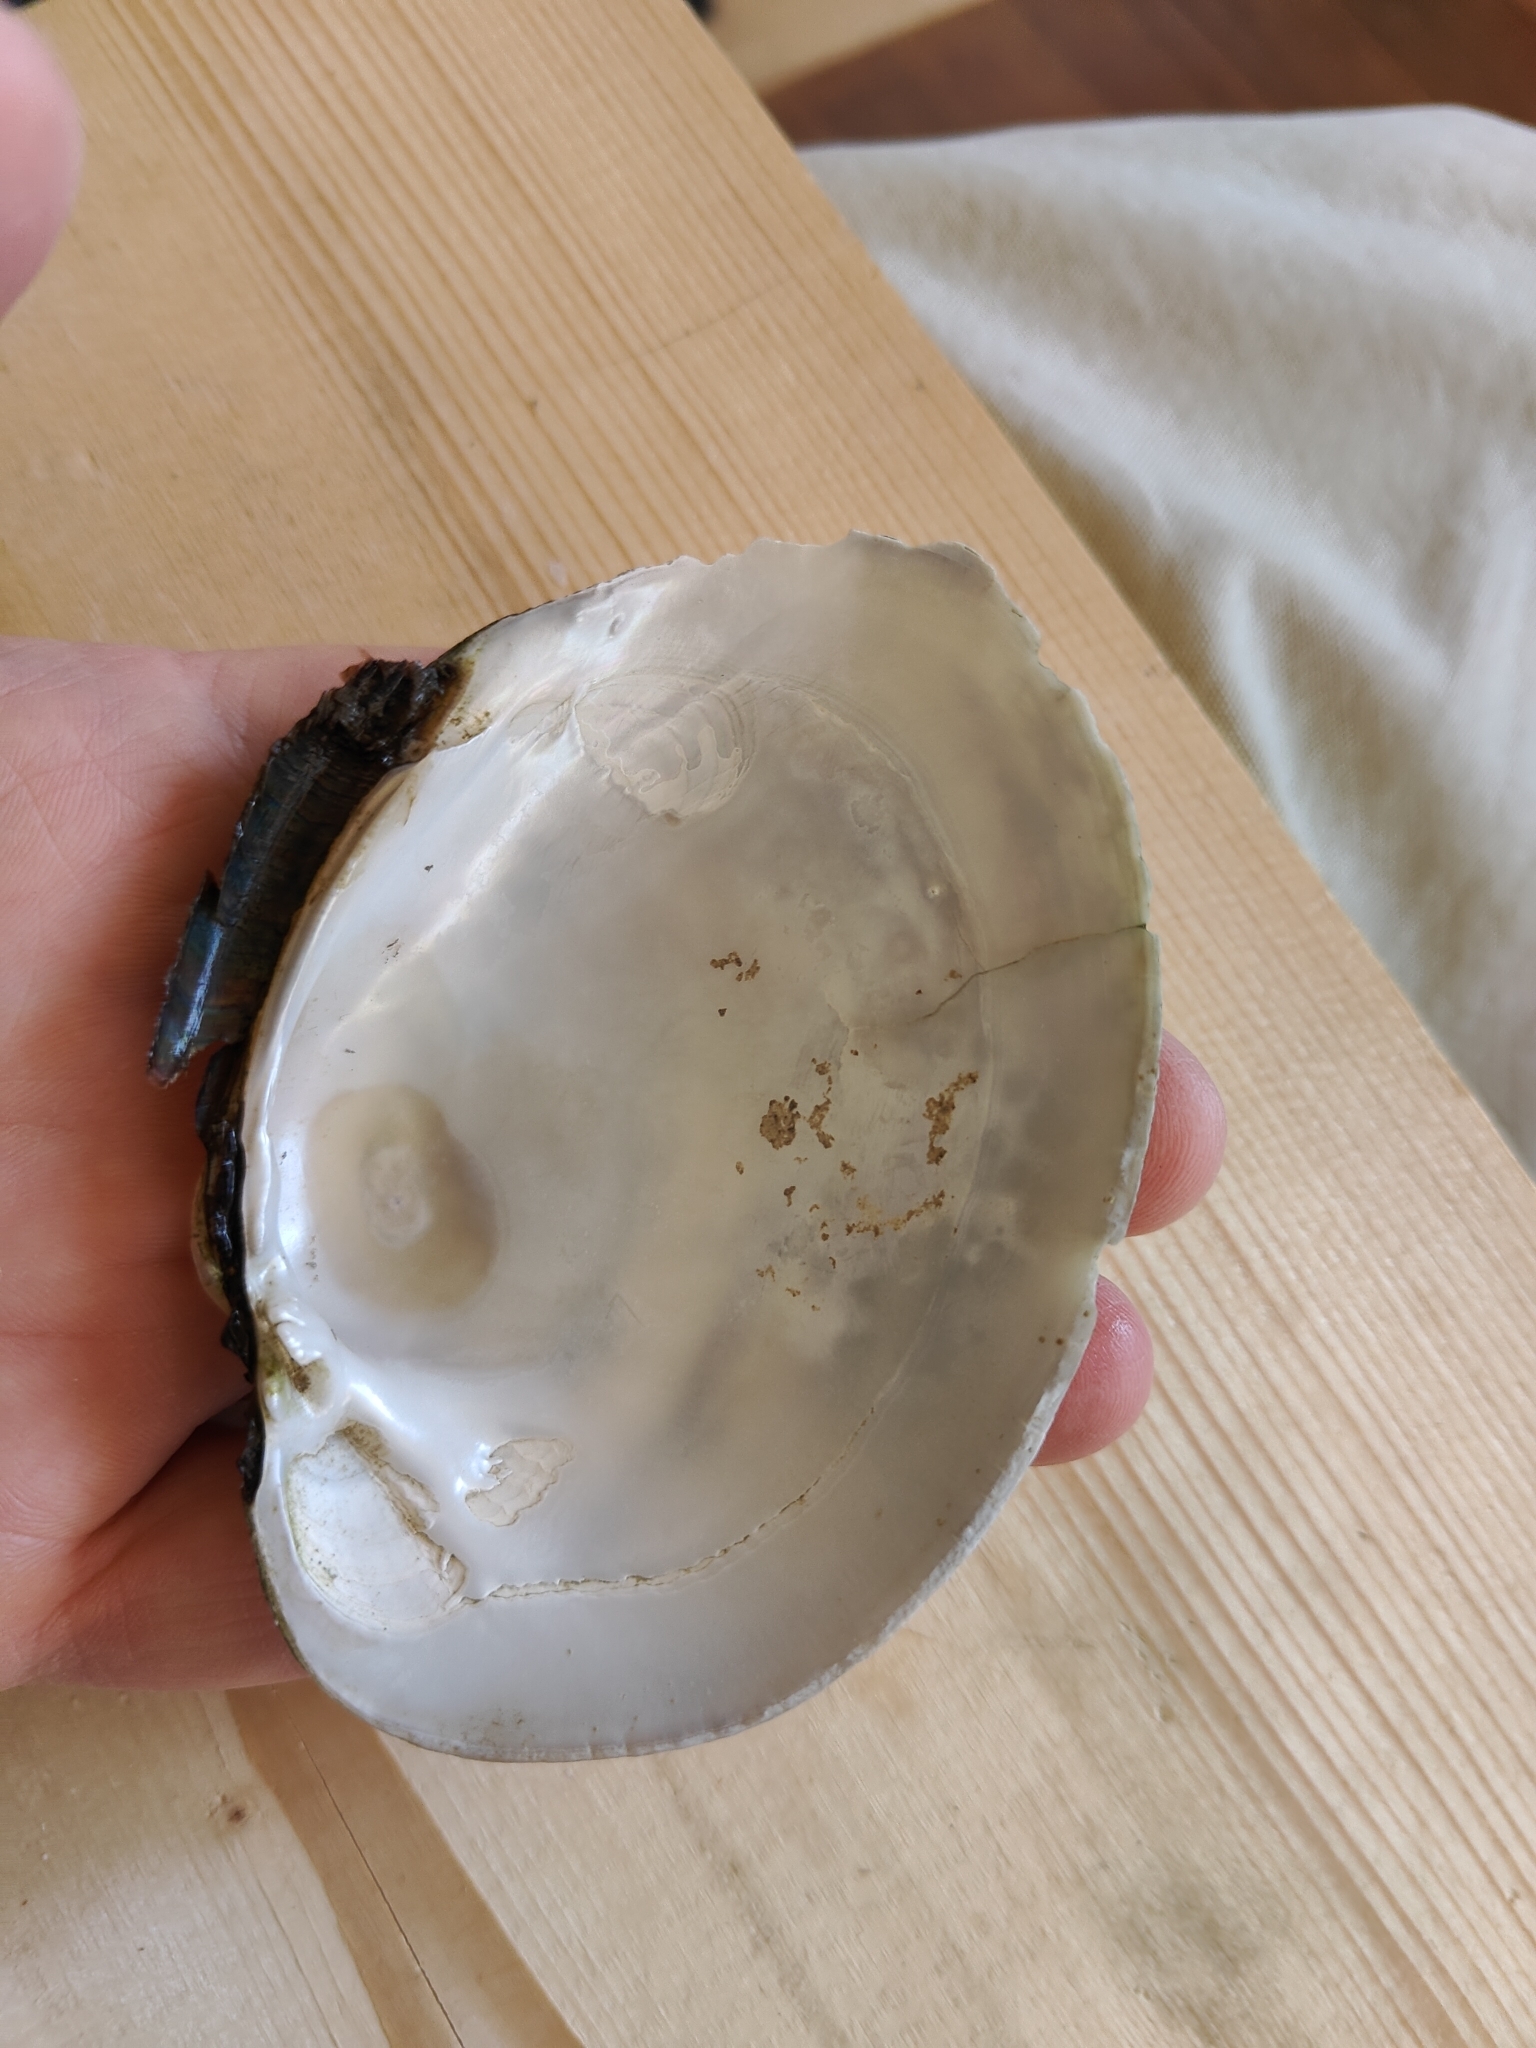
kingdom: Animalia
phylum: Mollusca
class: Bivalvia
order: Unionida
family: Unionidae
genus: Lampsilis
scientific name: Lampsilis cardium
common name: Plain pocketbook
